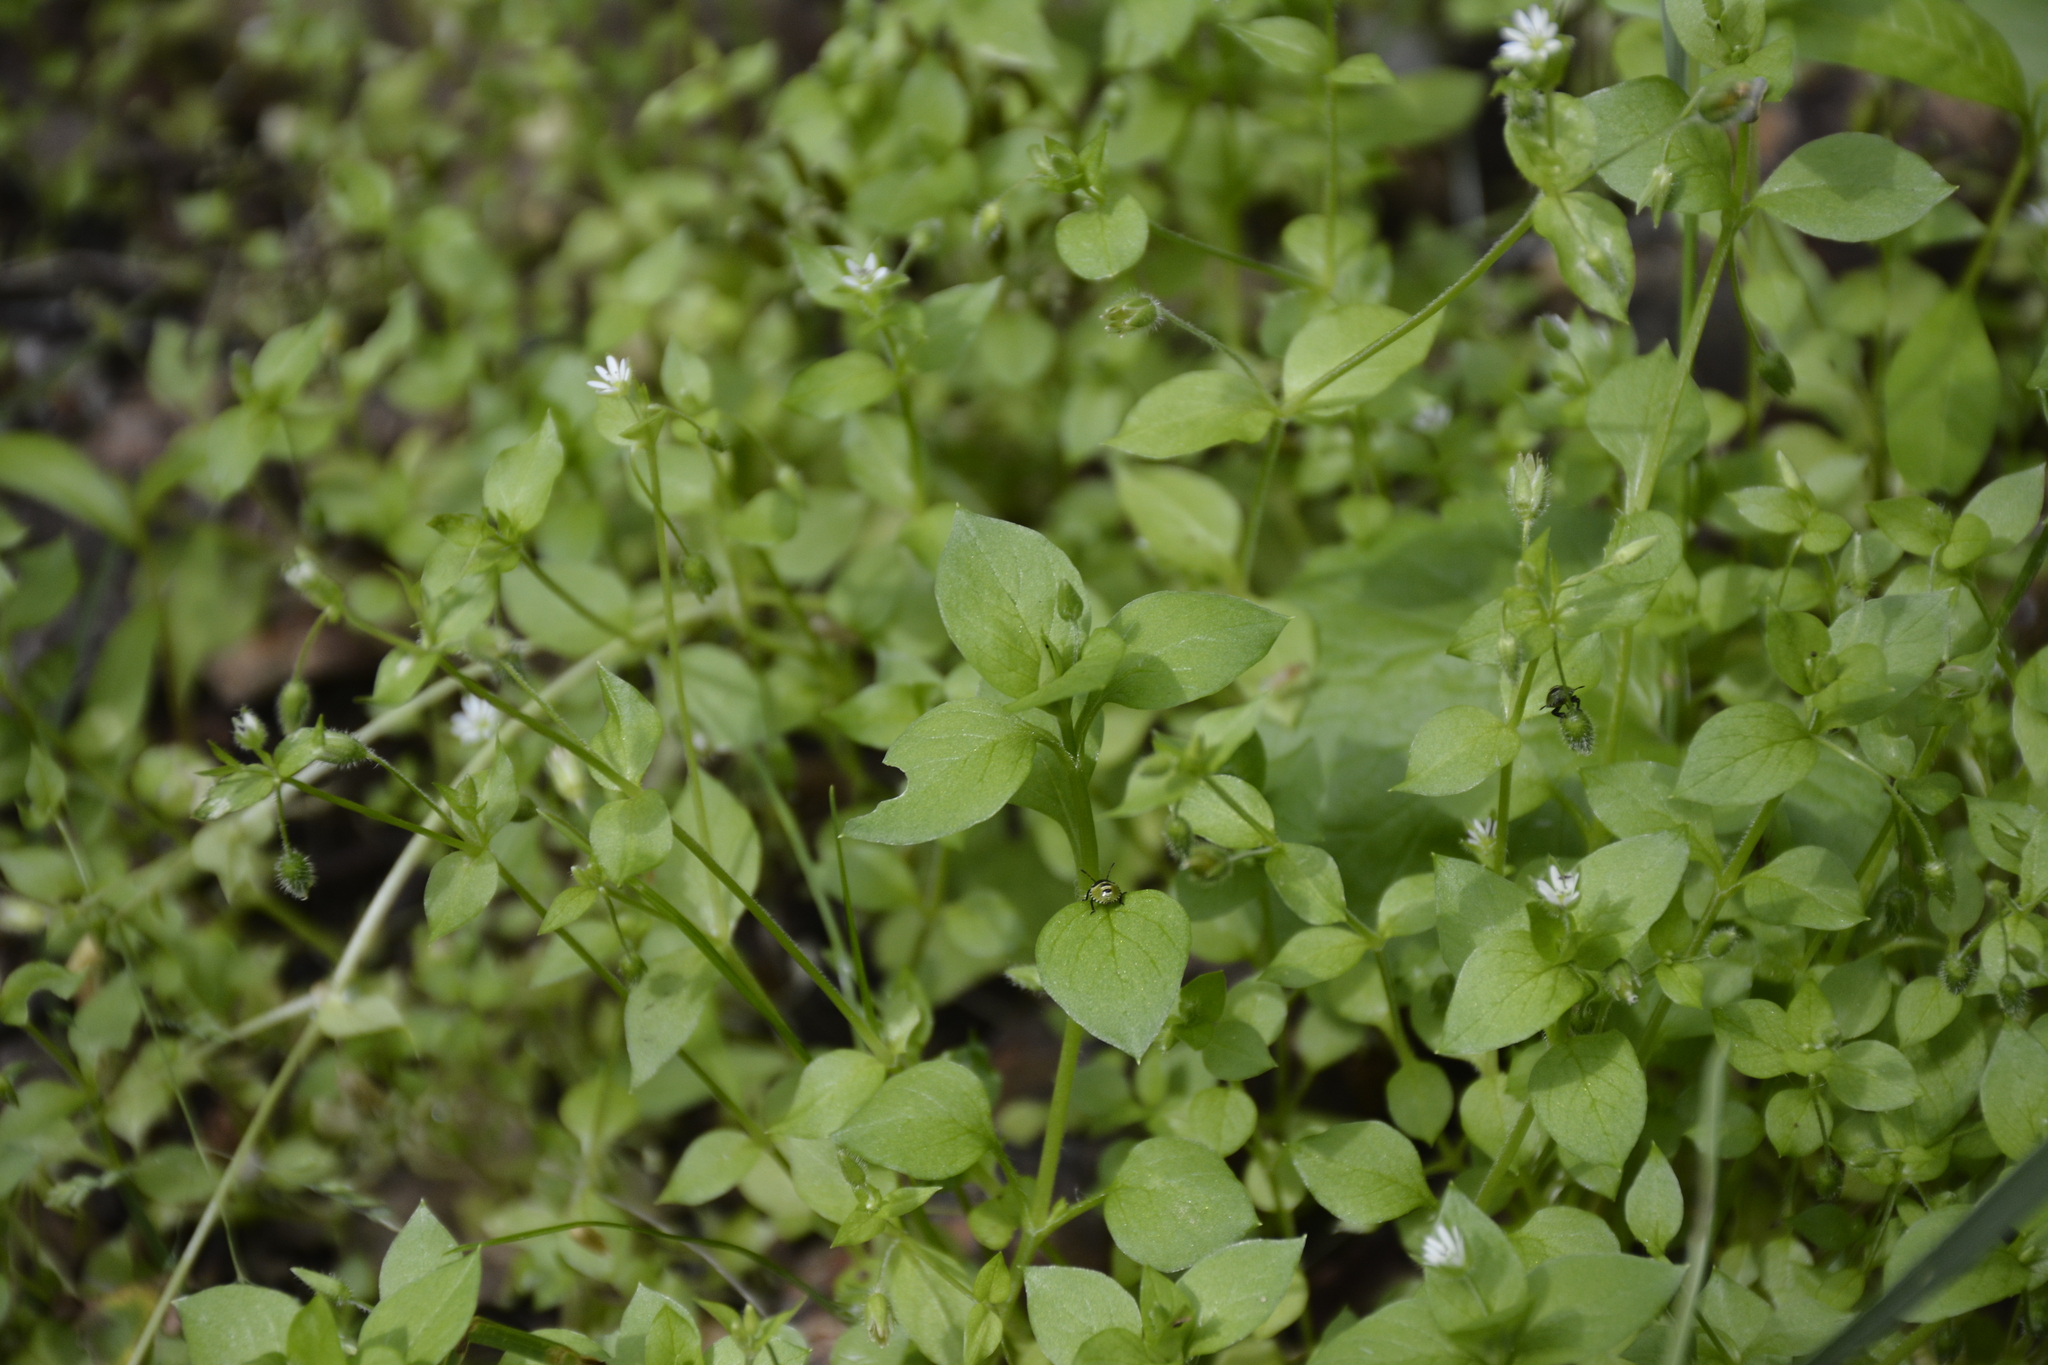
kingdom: Plantae
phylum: Tracheophyta
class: Magnoliopsida
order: Caryophyllales
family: Caryophyllaceae
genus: Stellaria
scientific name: Stellaria media
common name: Common chickweed
